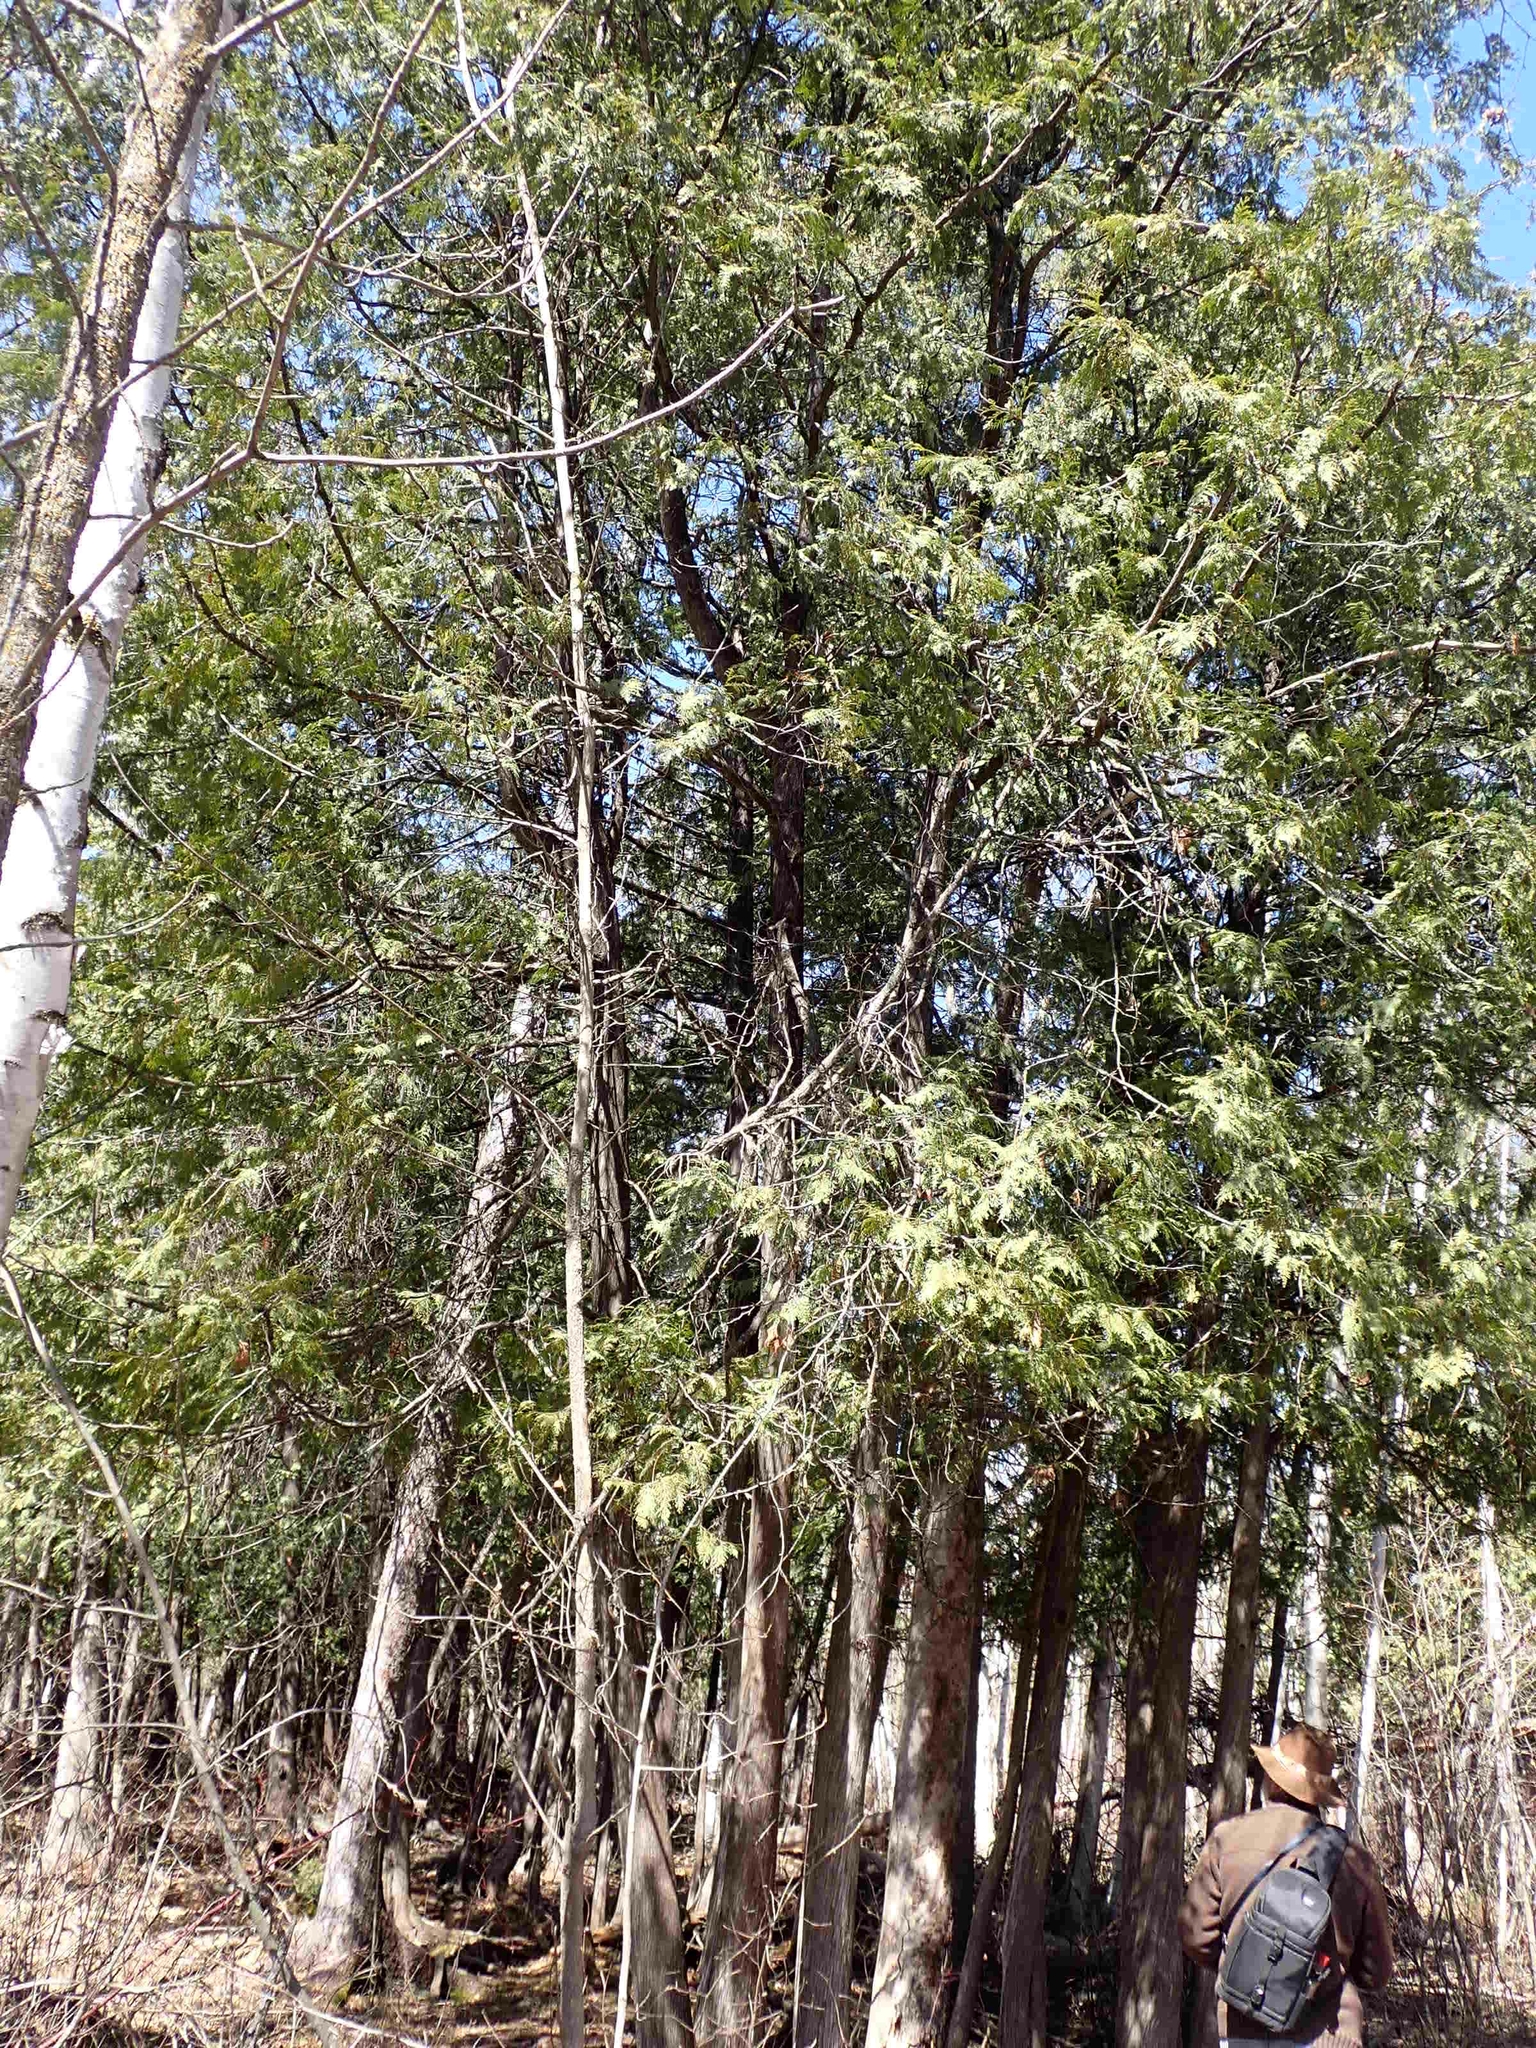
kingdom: Plantae
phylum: Tracheophyta
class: Pinopsida
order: Pinales
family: Cupressaceae
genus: Thuja
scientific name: Thuja occidentalis
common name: Northern white-cedar
